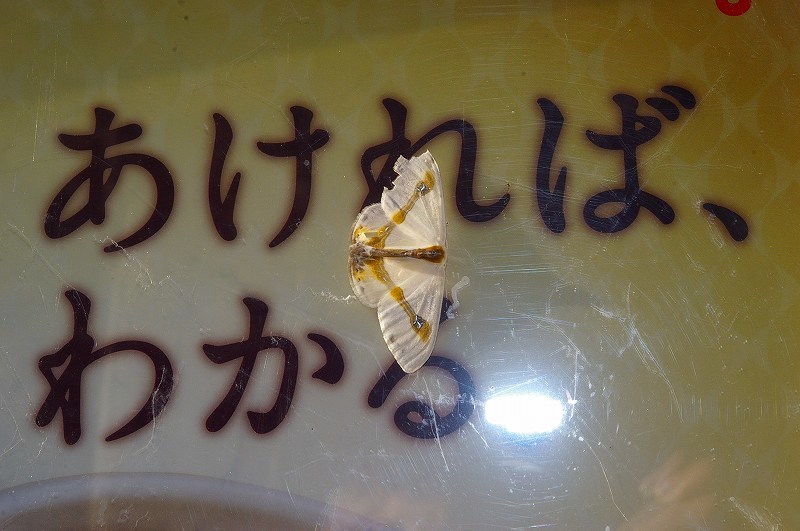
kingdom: Animalia
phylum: Arthropoda
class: Insecta
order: Lepidoptera
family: Drepanidae
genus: Macrocilix
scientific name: Macrocilix mysticata
